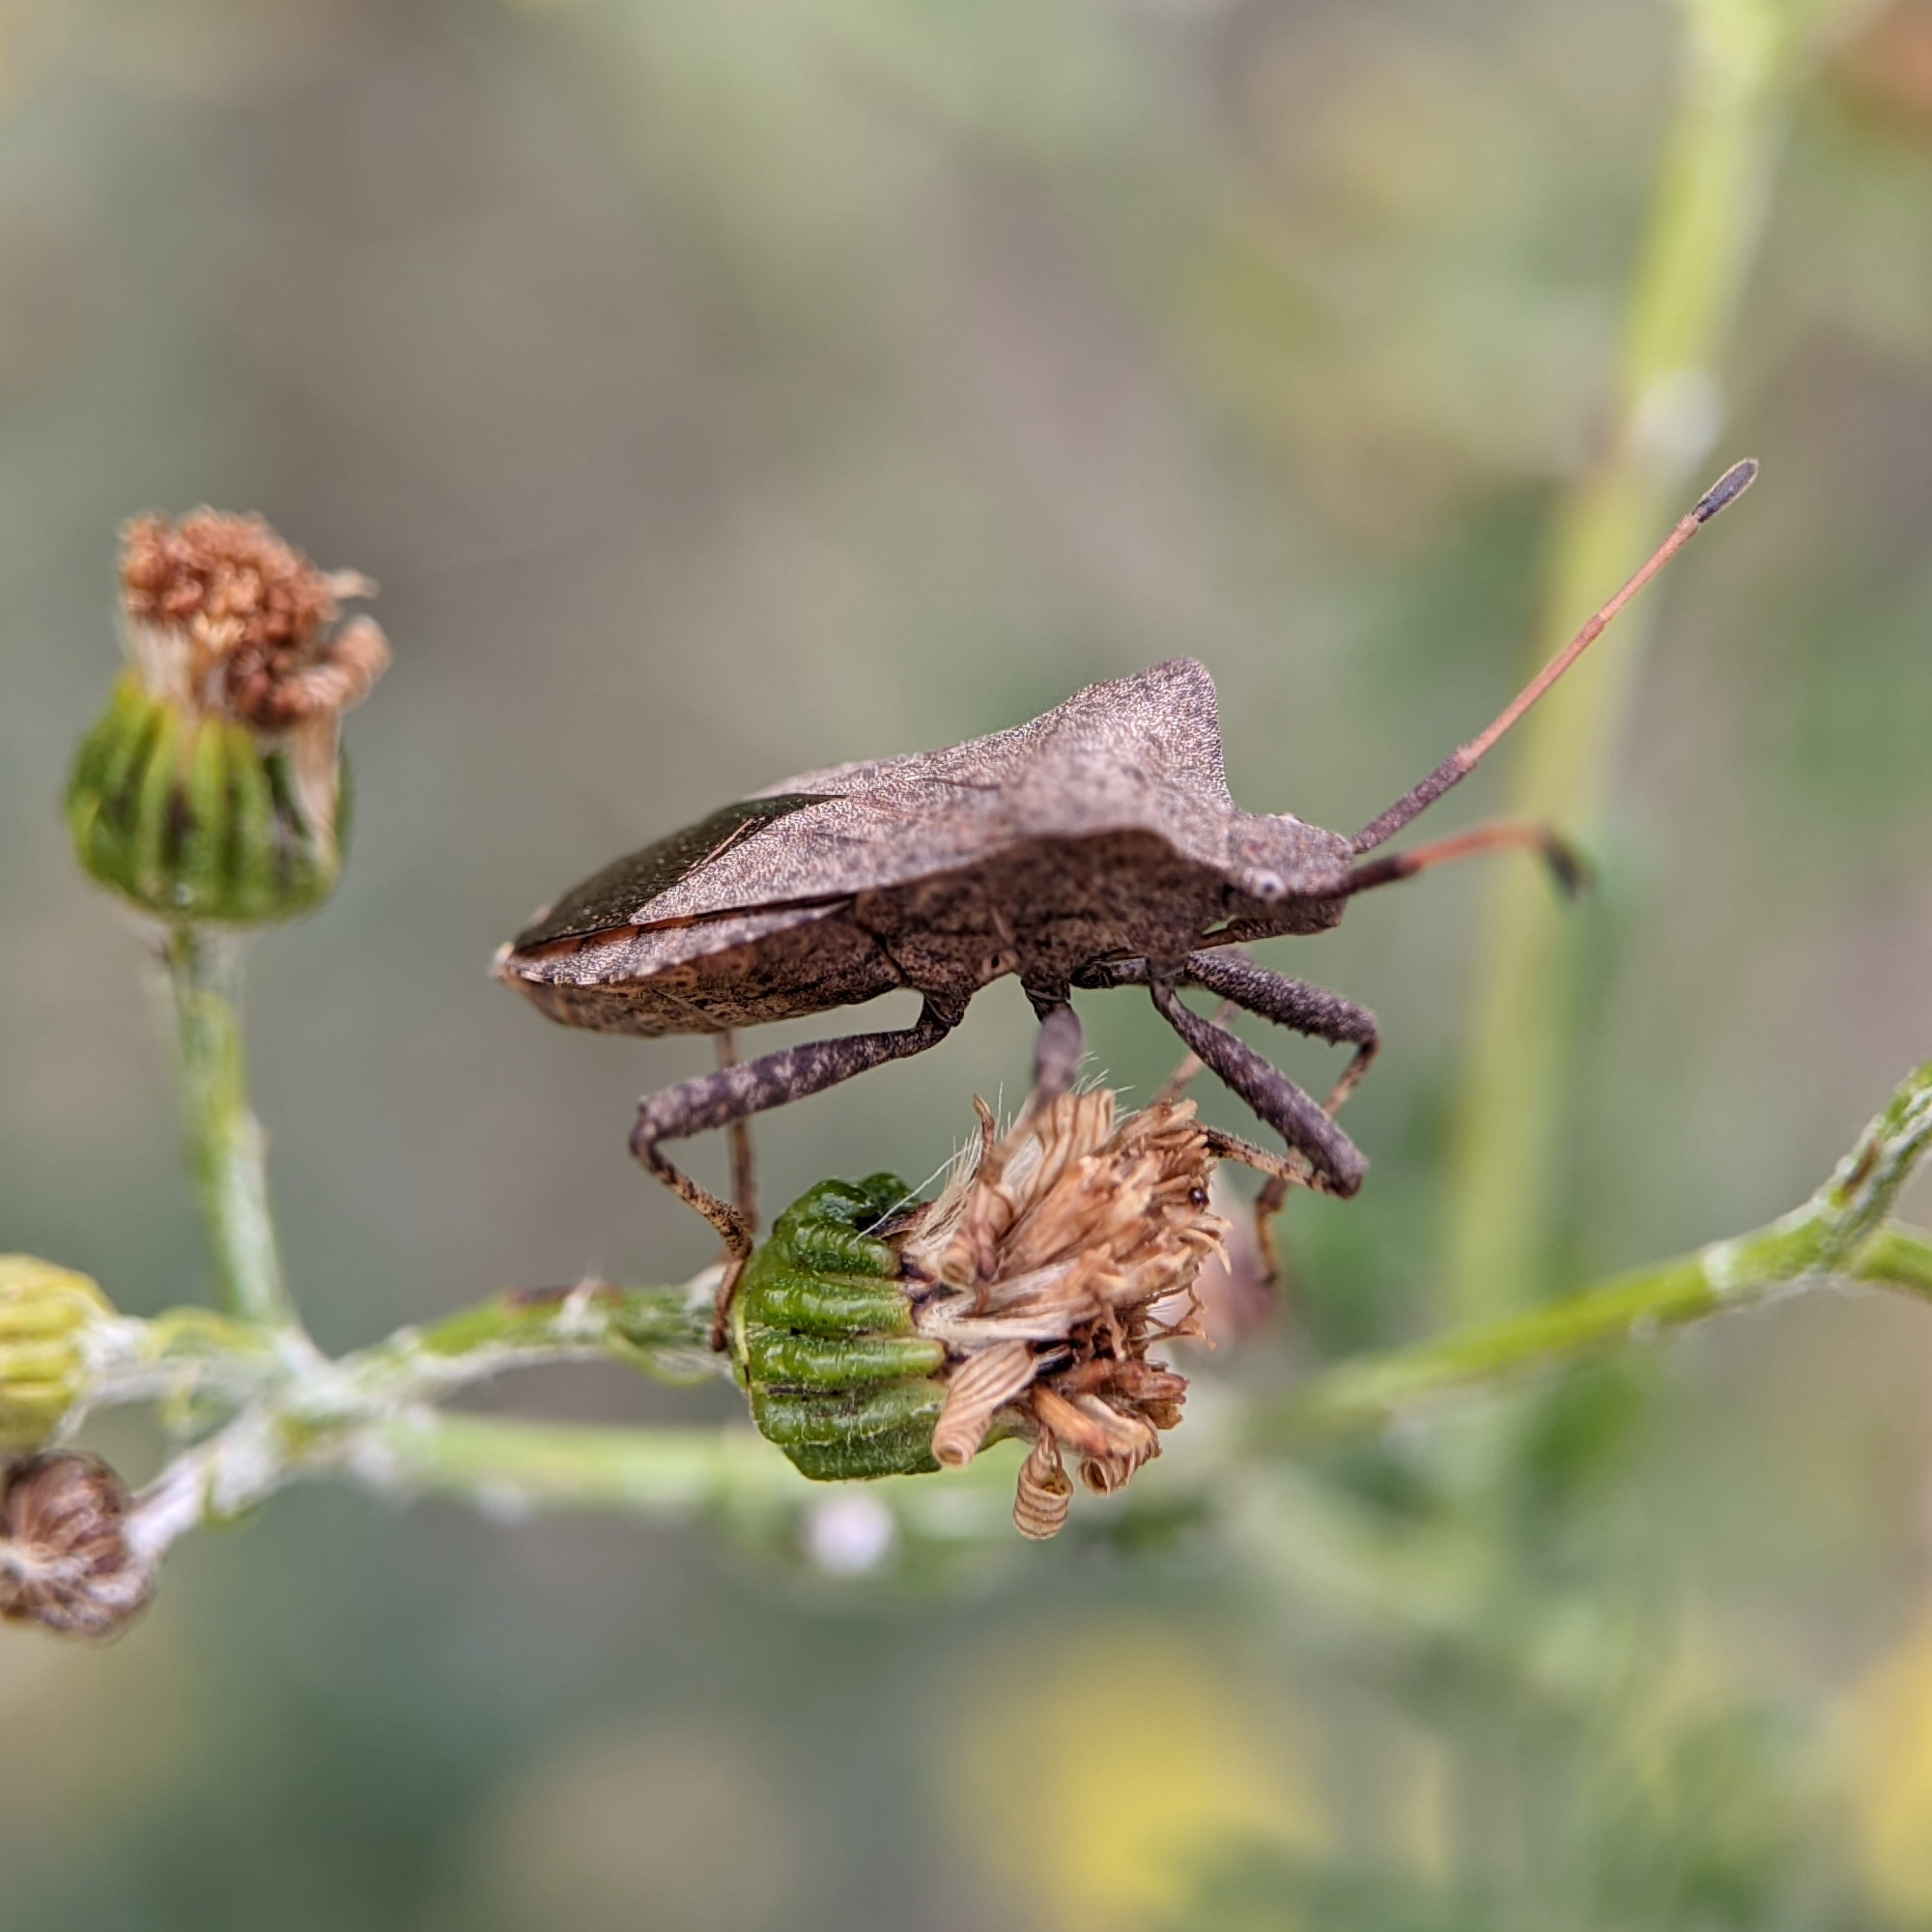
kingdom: Animalia
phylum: Arthropoda
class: Insecta
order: Hemiptera
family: Coreidae
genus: Coreus
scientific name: Coreus marginatus
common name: Dock bug
